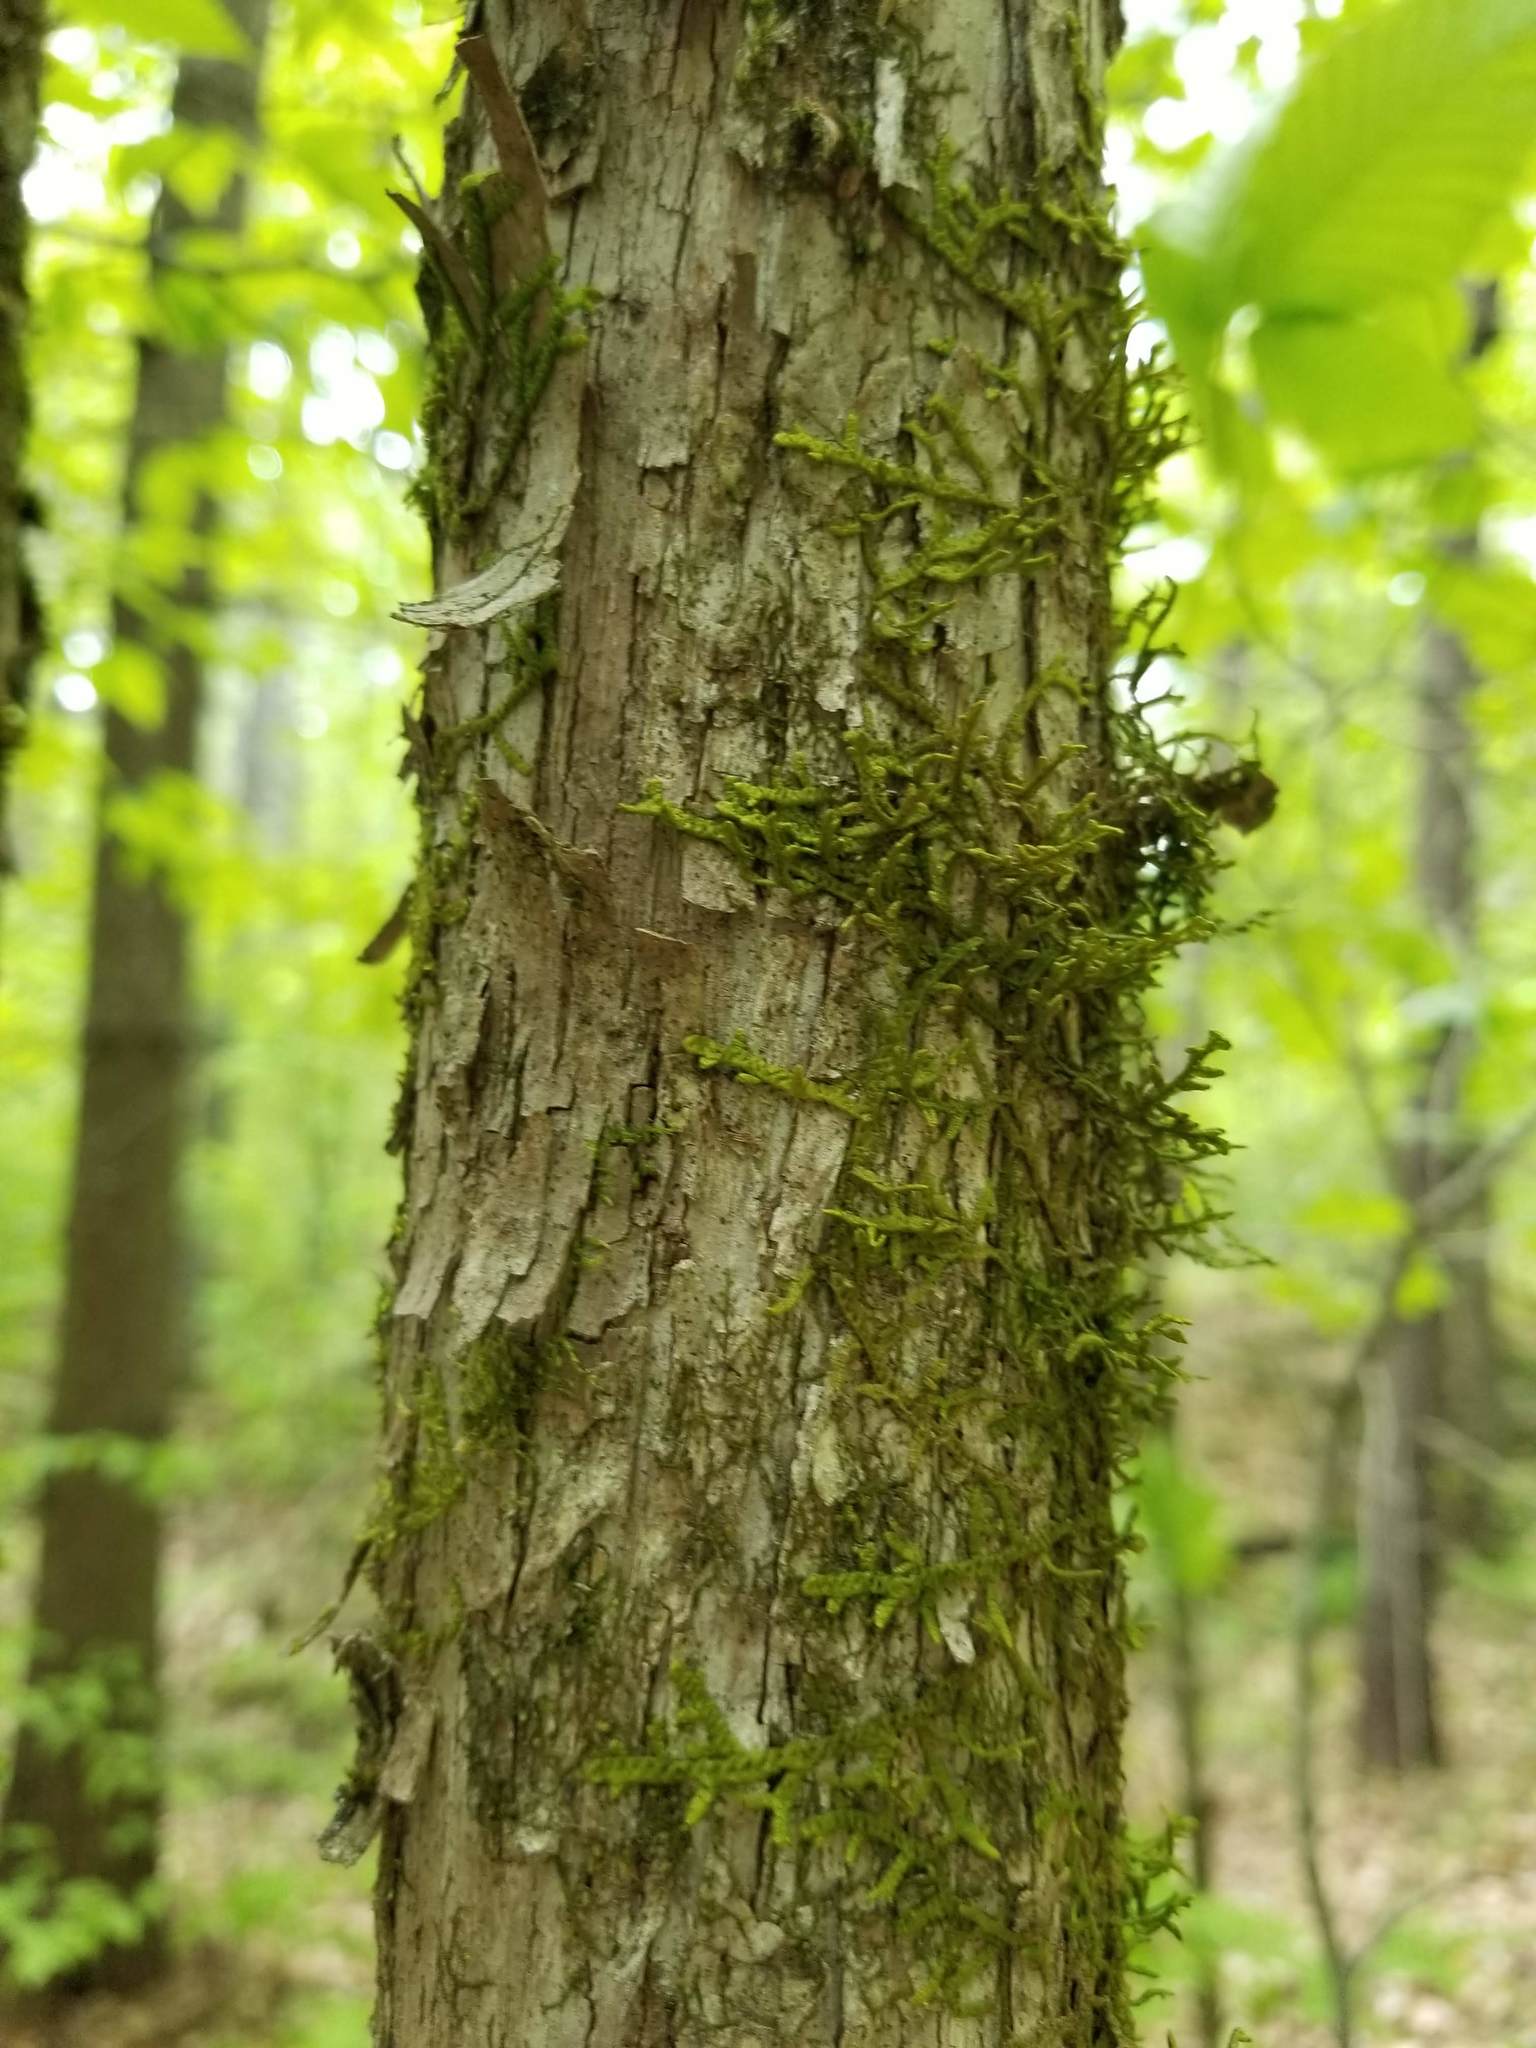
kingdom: Plantae
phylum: Marchantiophyta
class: Jungermanniopsida
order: Porellales
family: Porellaceae
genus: Porella
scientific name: Porella platyphylla
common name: Wall scalewort
